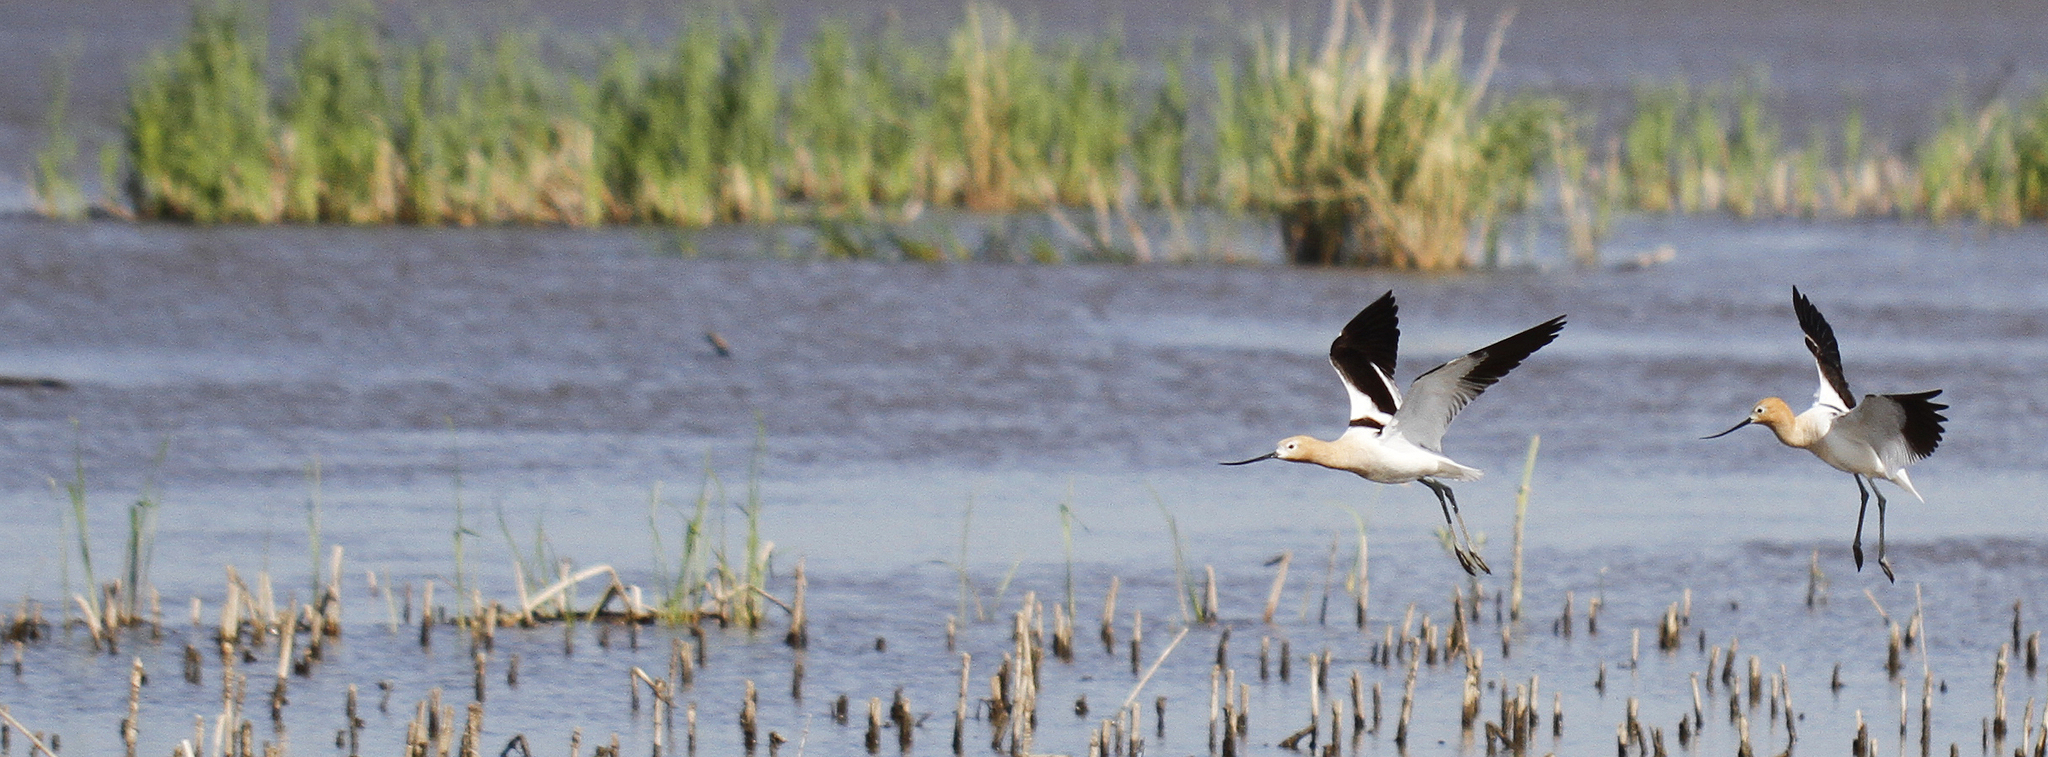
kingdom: Animalia
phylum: Chordata
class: Aves
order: Charadriiformes
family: Recurvirostridae
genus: Recurvirostra
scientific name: Recurvirostra americana
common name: American avocet
